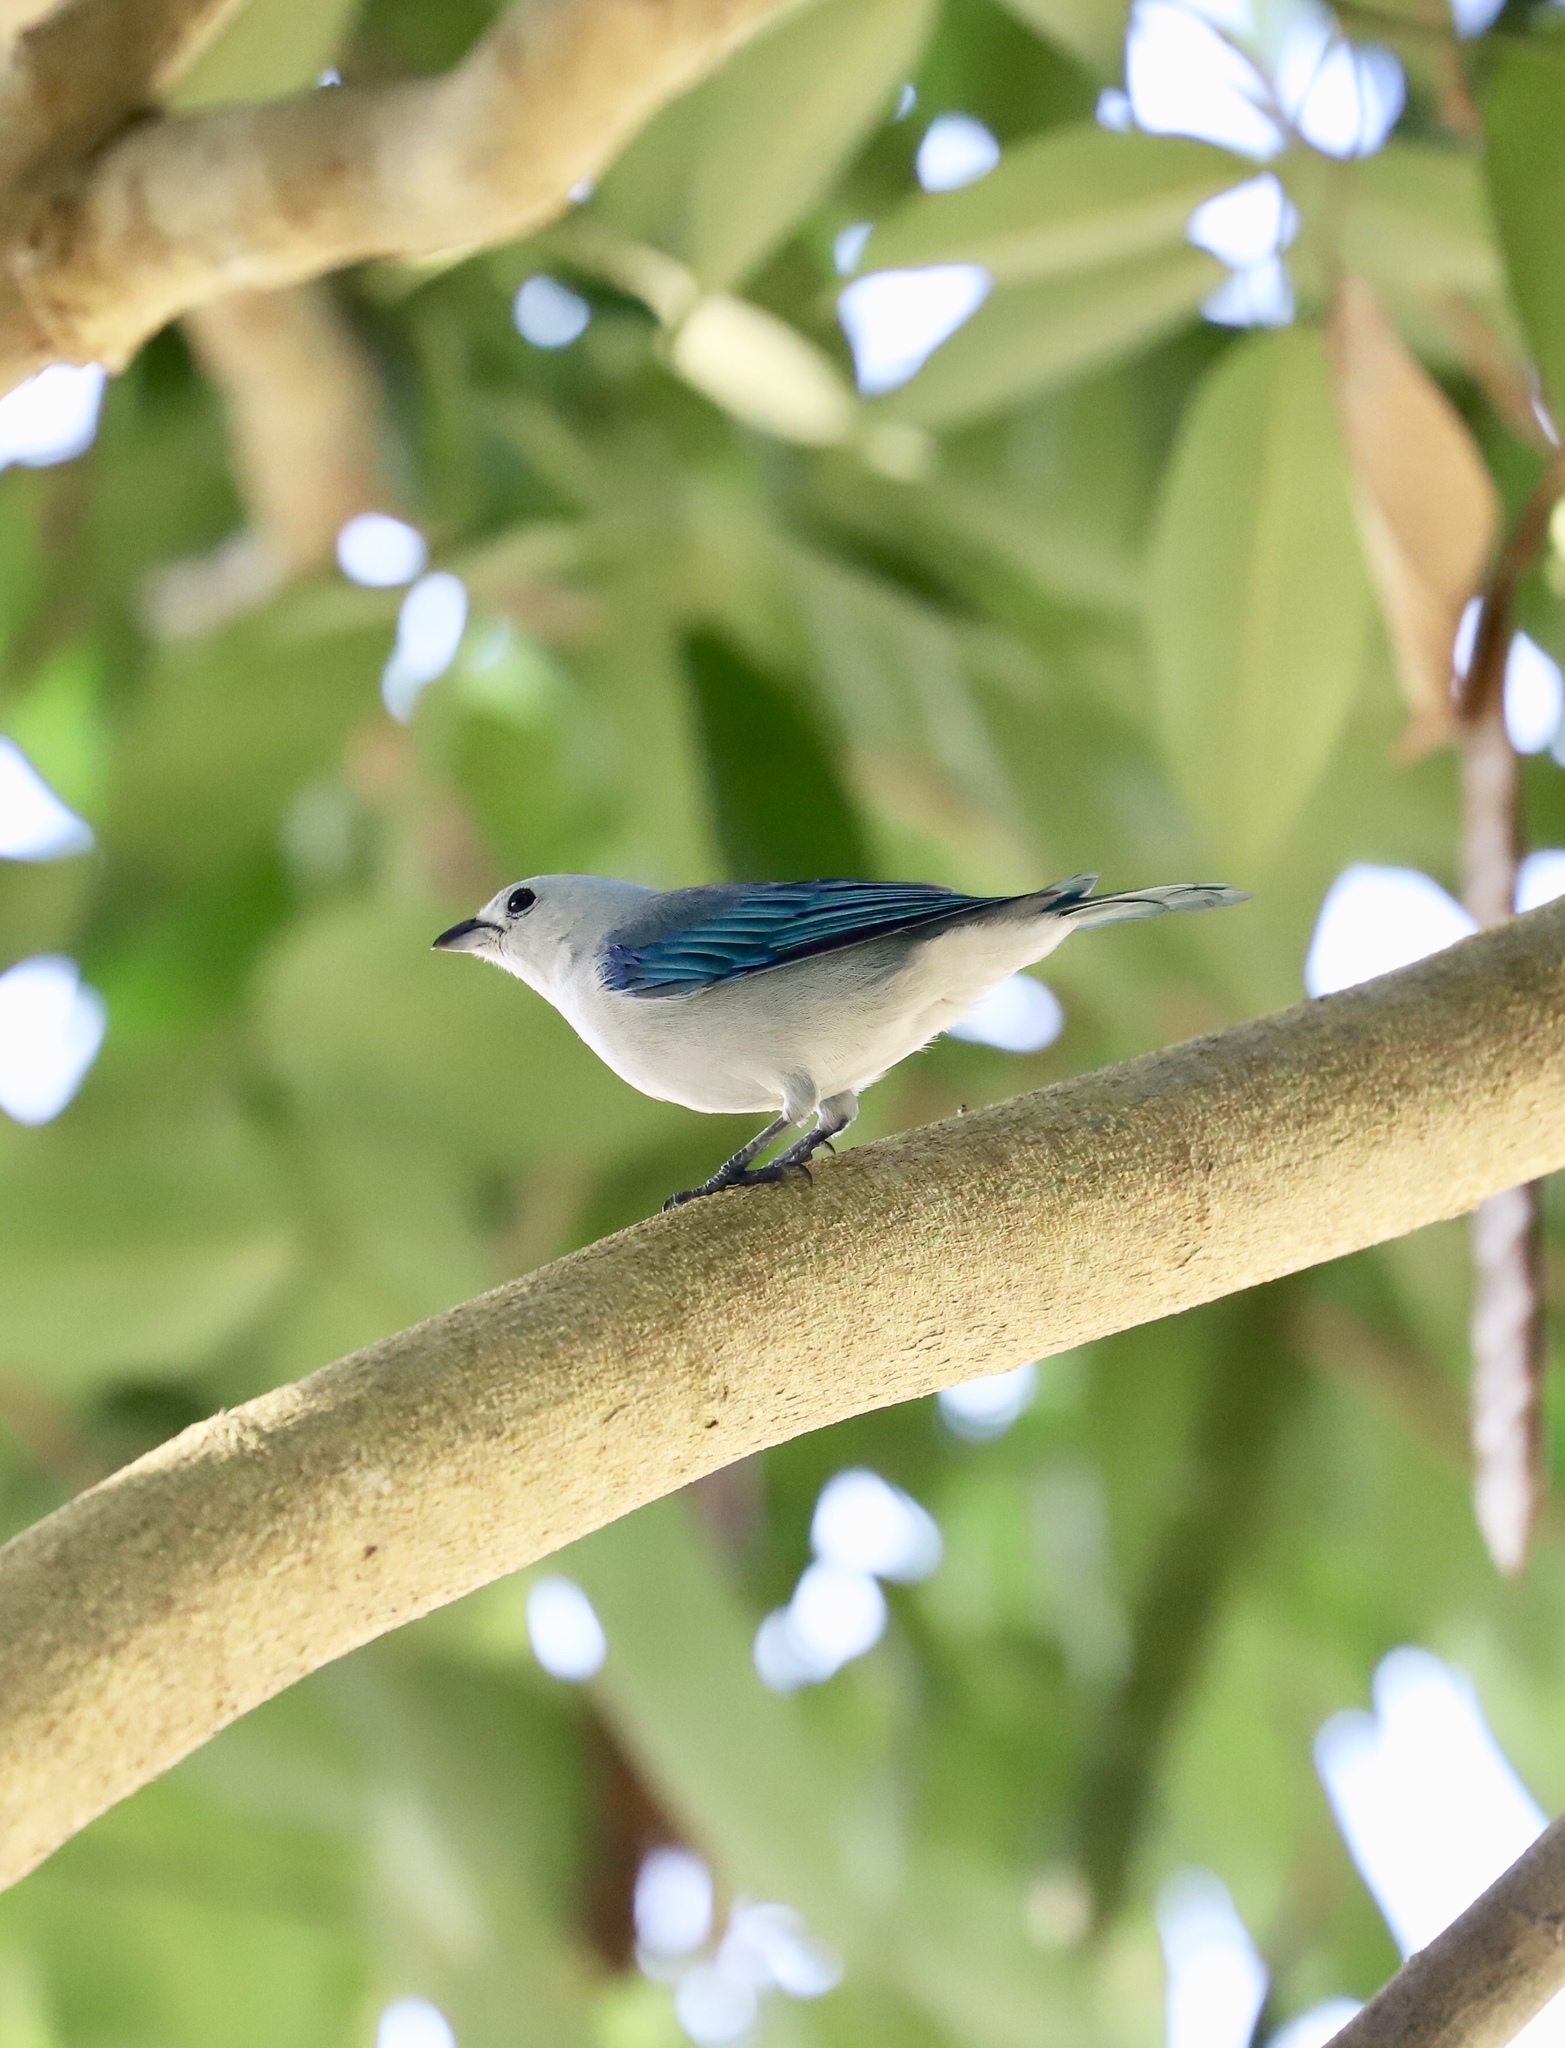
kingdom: Animalia
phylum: Chordata
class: Aves
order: Passeriformes
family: Thraupidae
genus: Thraupis
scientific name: Thraupis episcopus
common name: Blue-grey tanager
